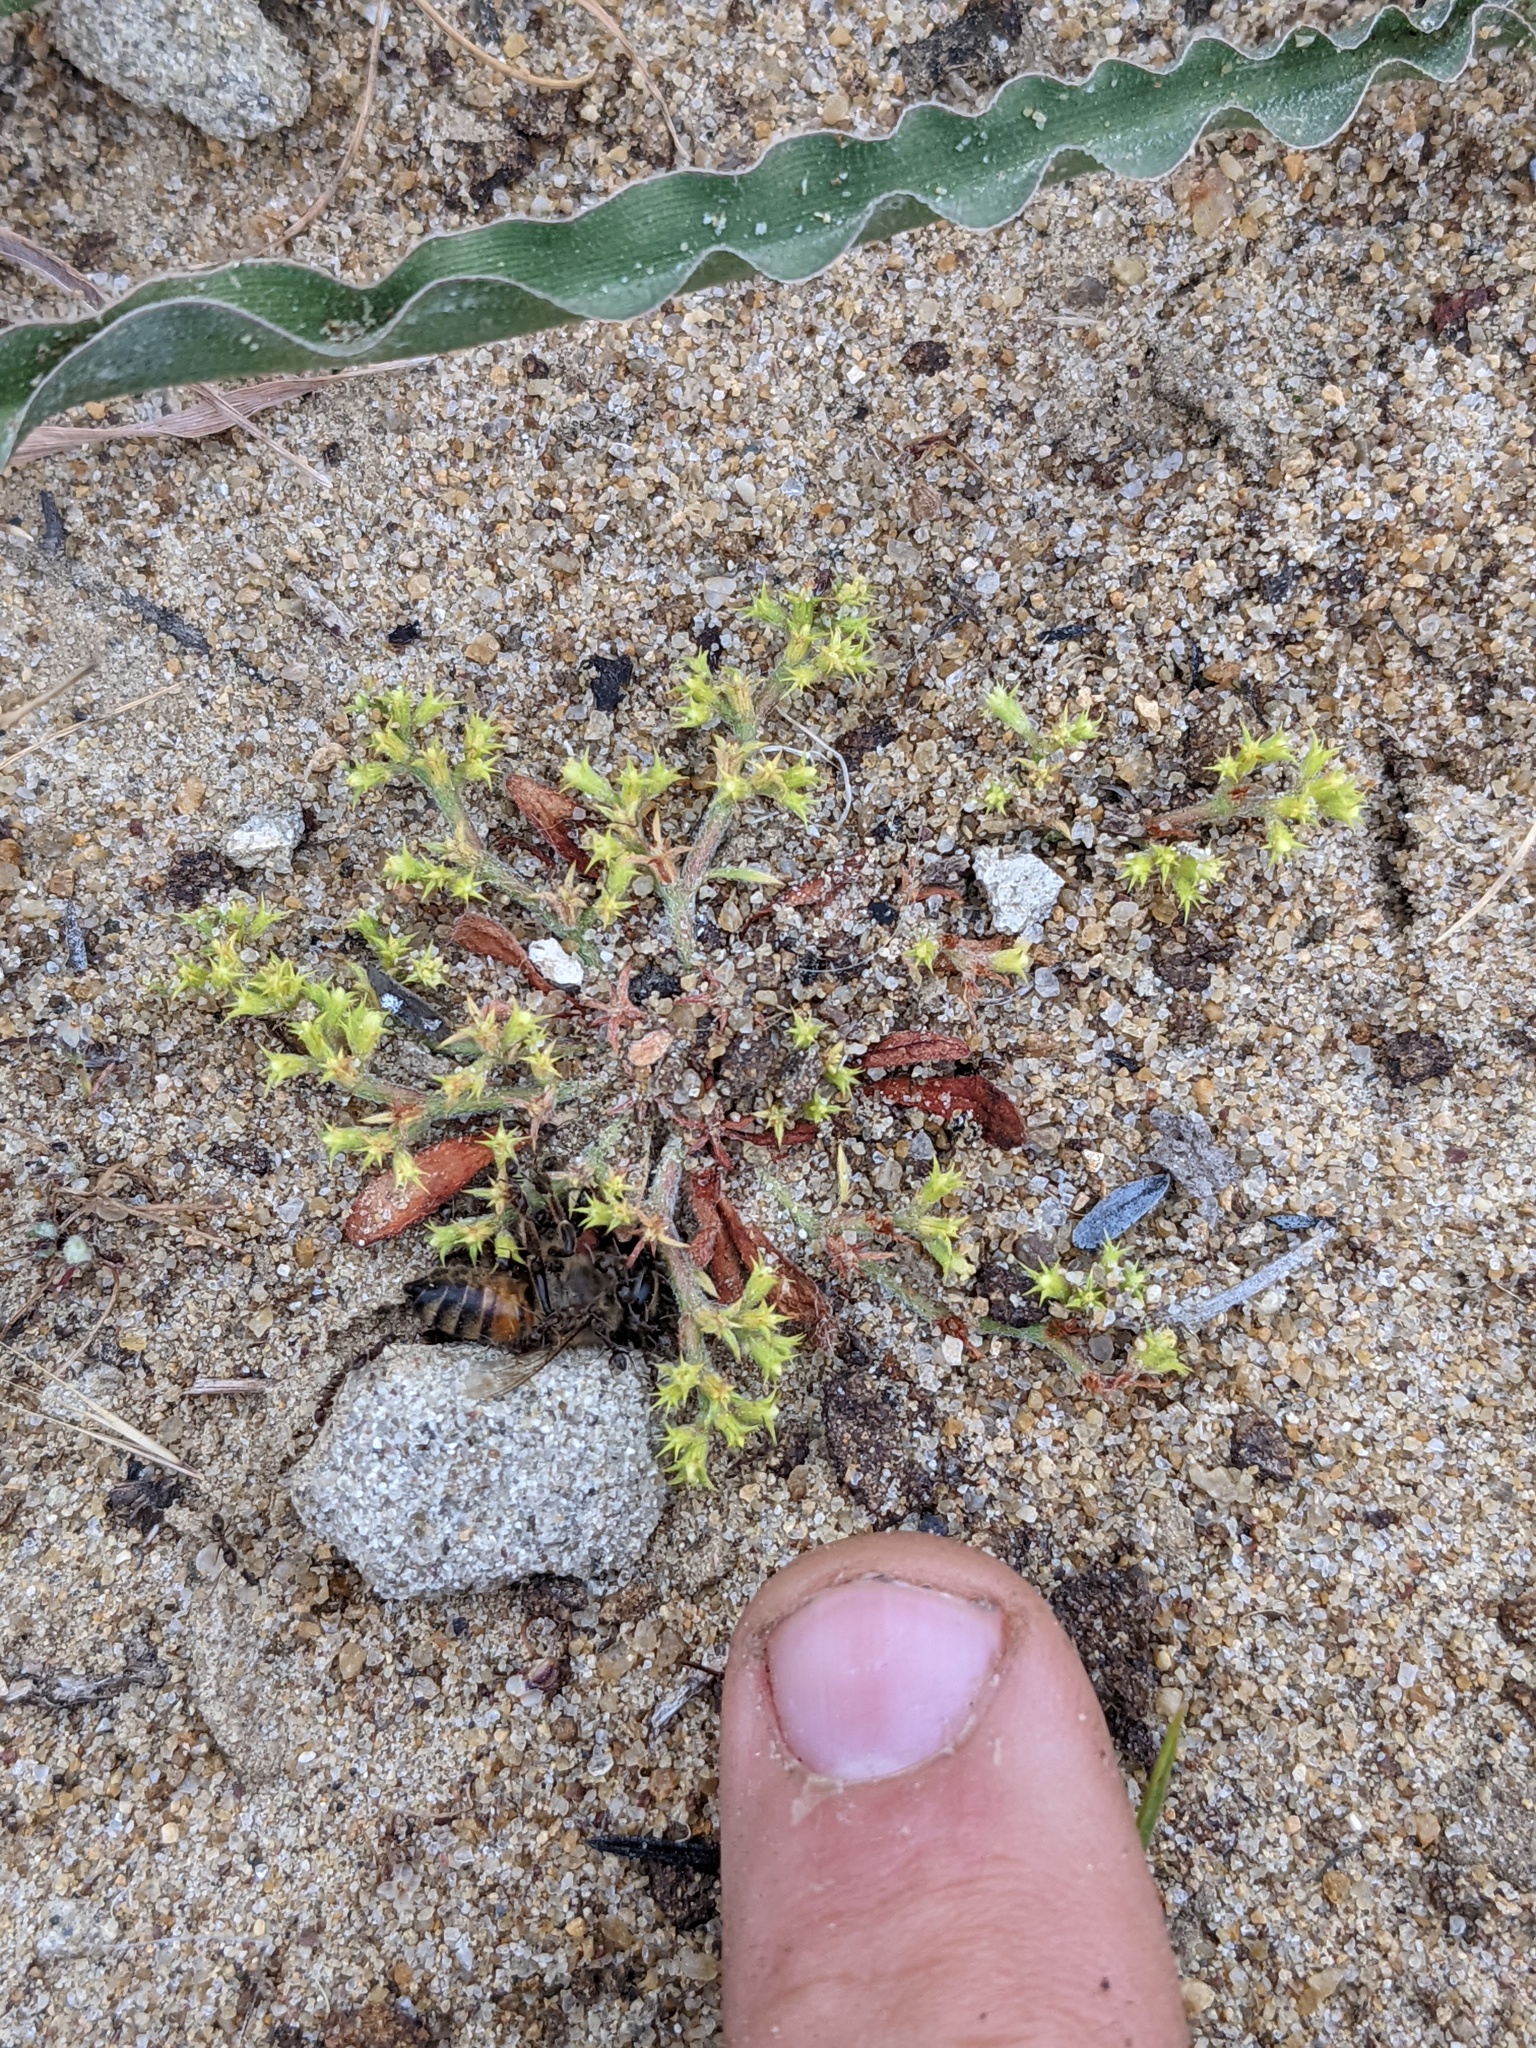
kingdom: Plantae
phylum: Tracheophyta
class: Magnoliopsida
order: Caryophyllales
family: Polygonaceae
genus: Chorizanthe
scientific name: Chorizanthe procumbens
